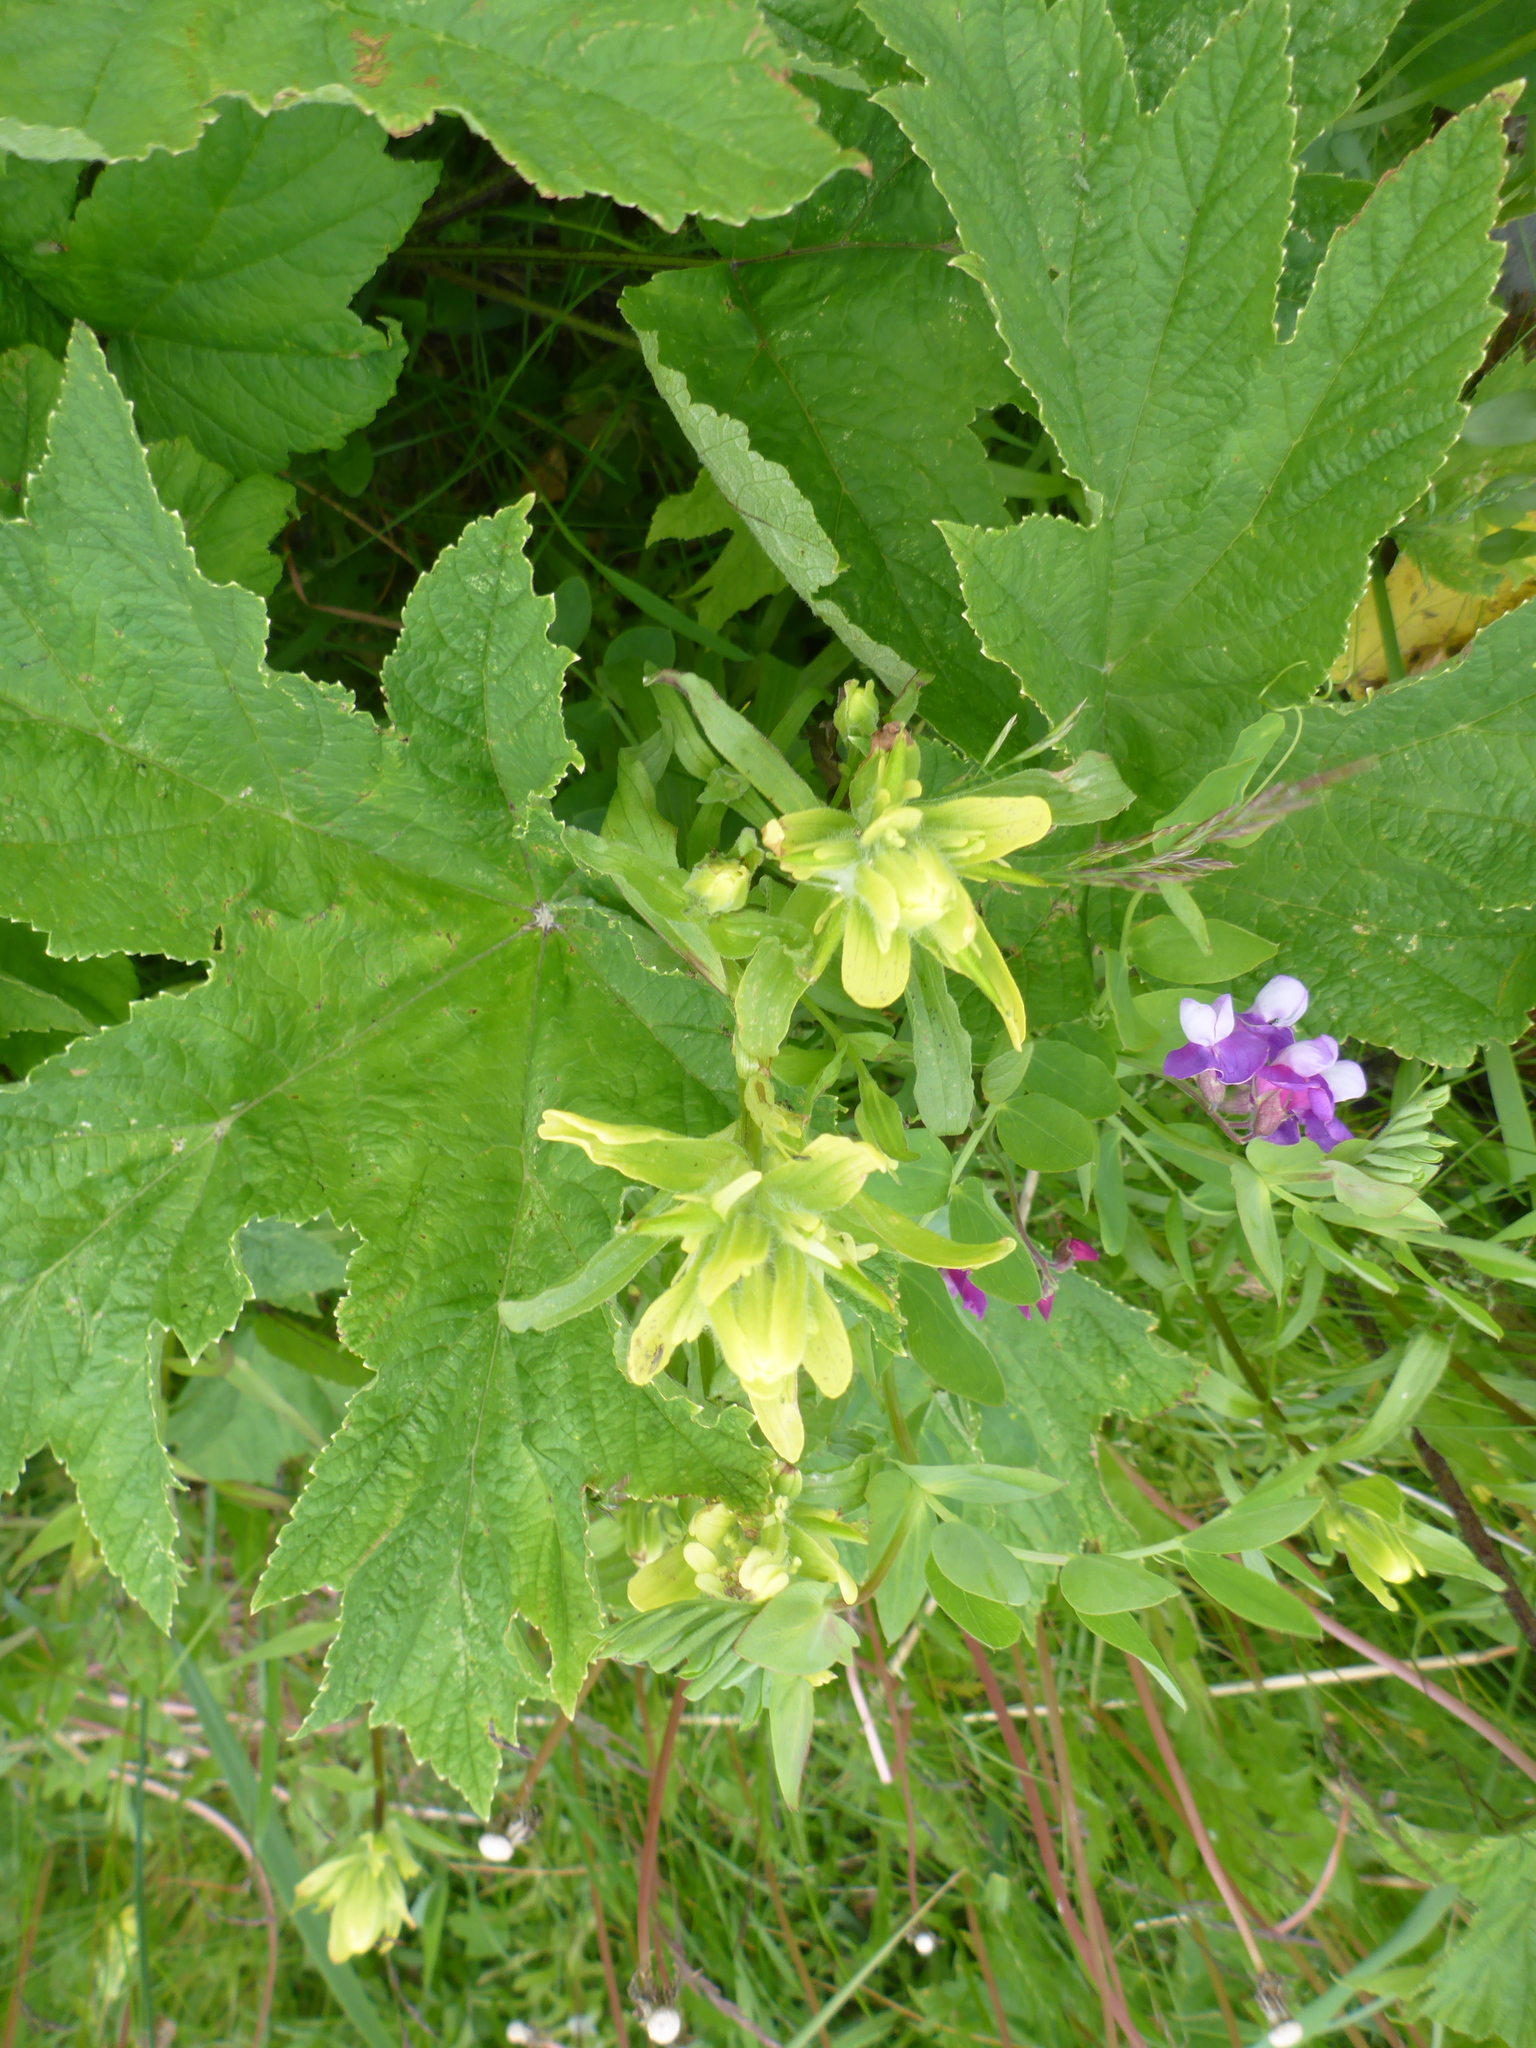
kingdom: Plantae
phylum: Tracheophyta
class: Magnoliopsida
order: Lamiales
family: Orobanchaceae
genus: Castilleja
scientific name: Castilleja unalaschcensis
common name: Unalaska paintbrush
